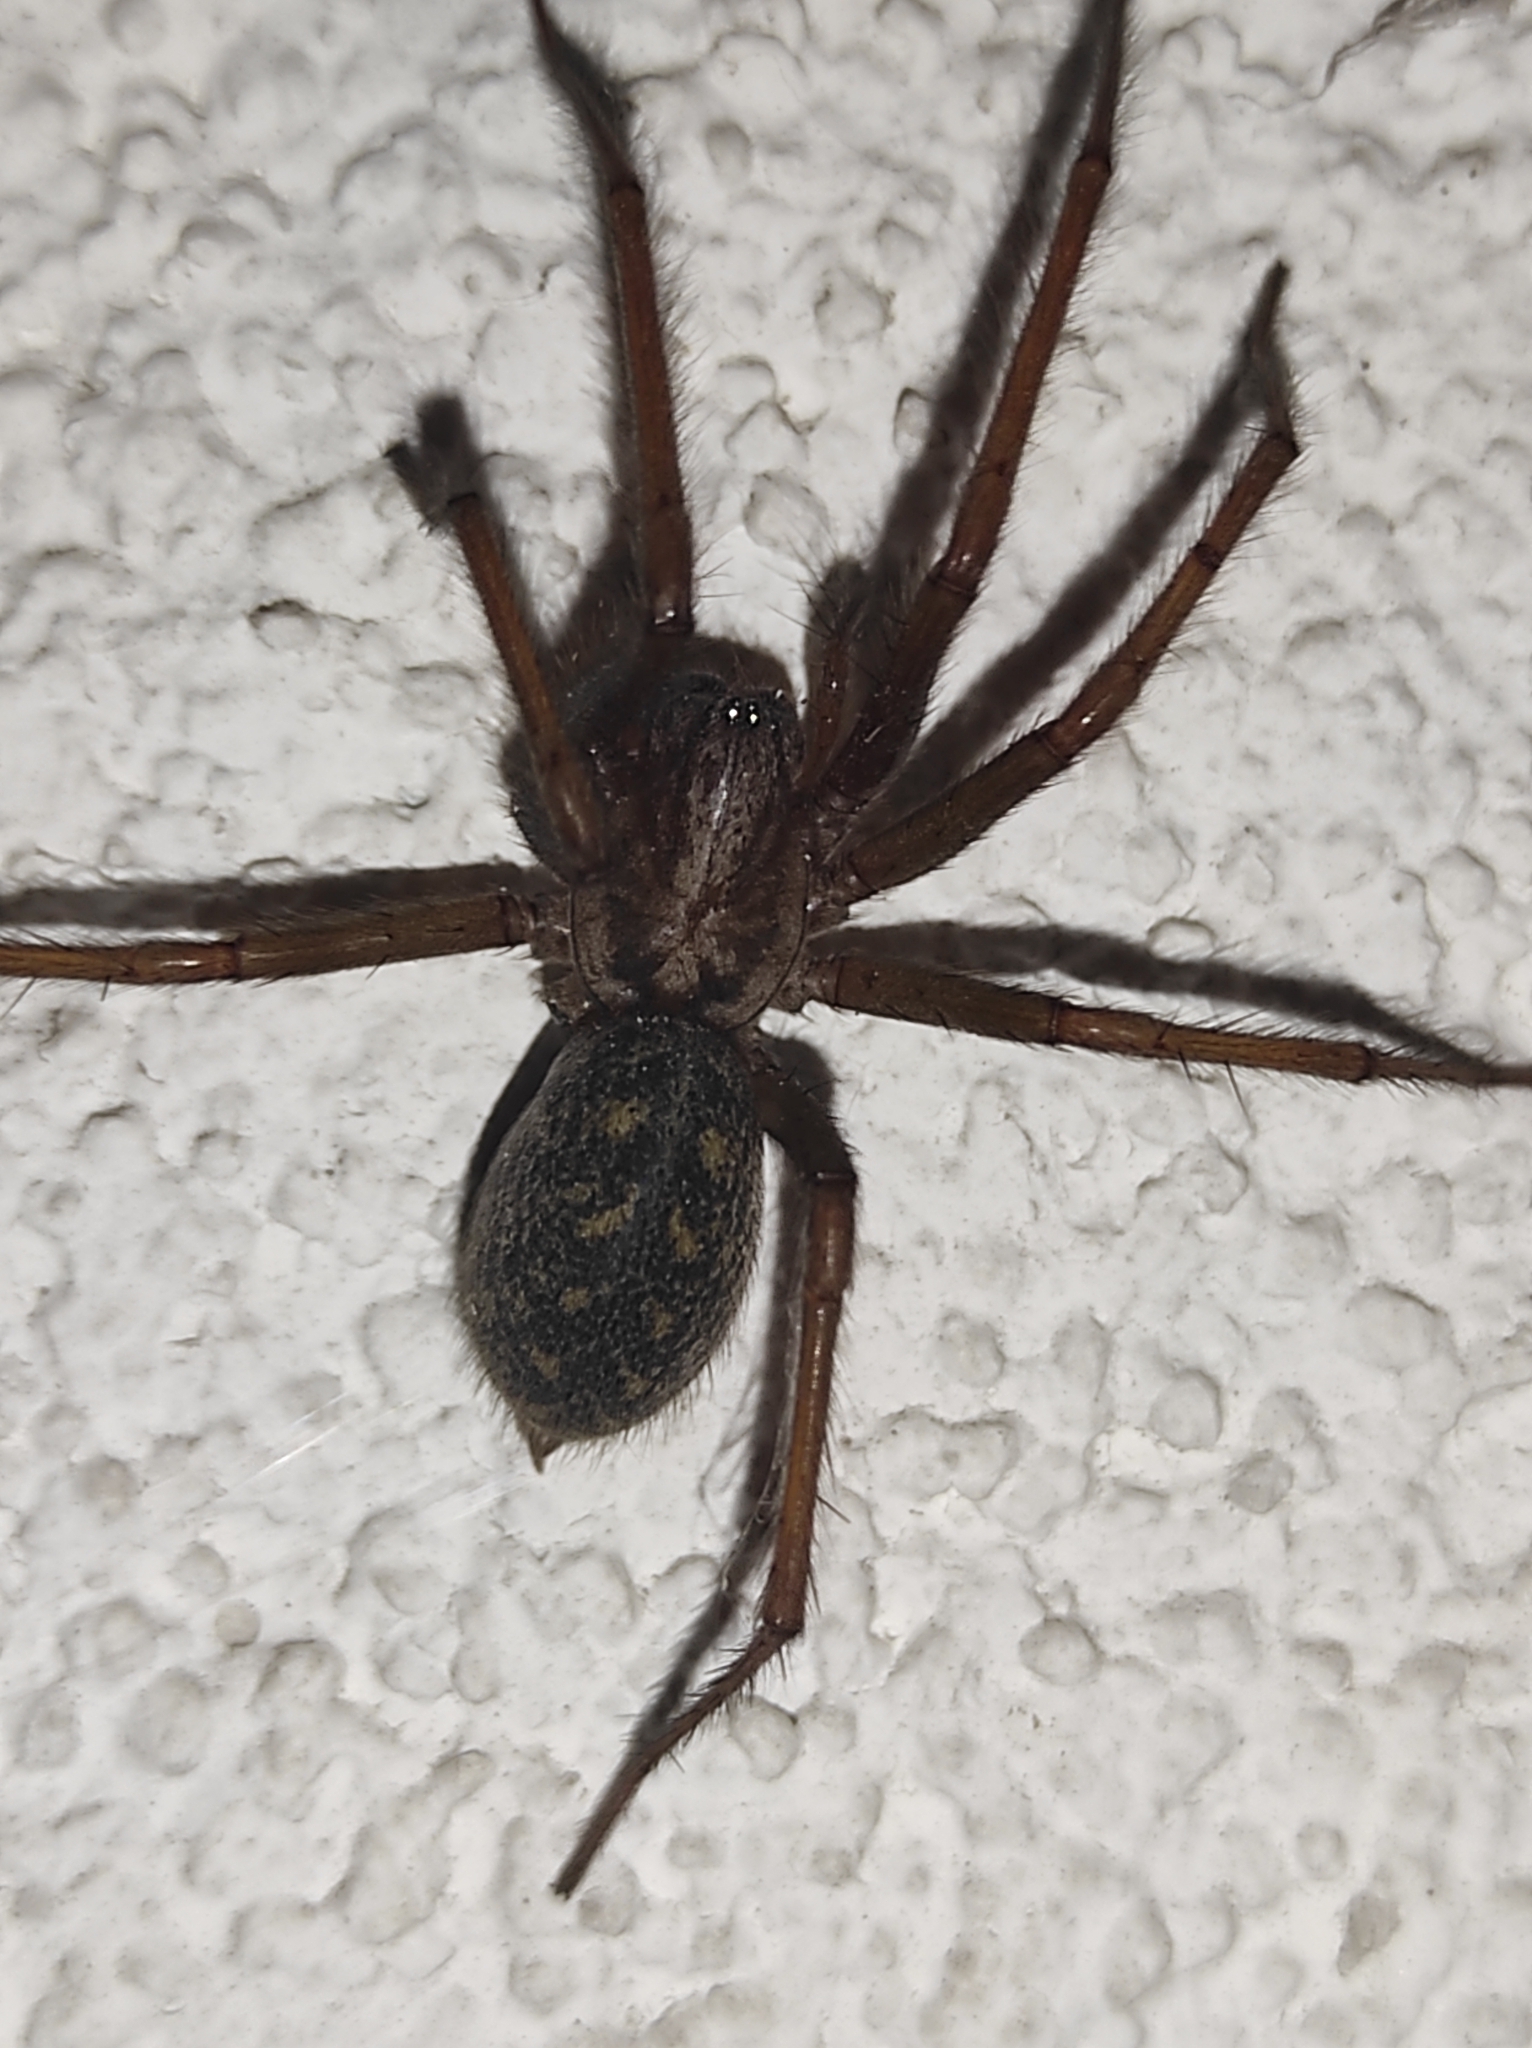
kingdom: Animalia
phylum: Arthropoda
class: Arachnida
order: Araneae
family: Agelenidae
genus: Eratigena
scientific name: Eratigena atrica
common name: Giant house spider
